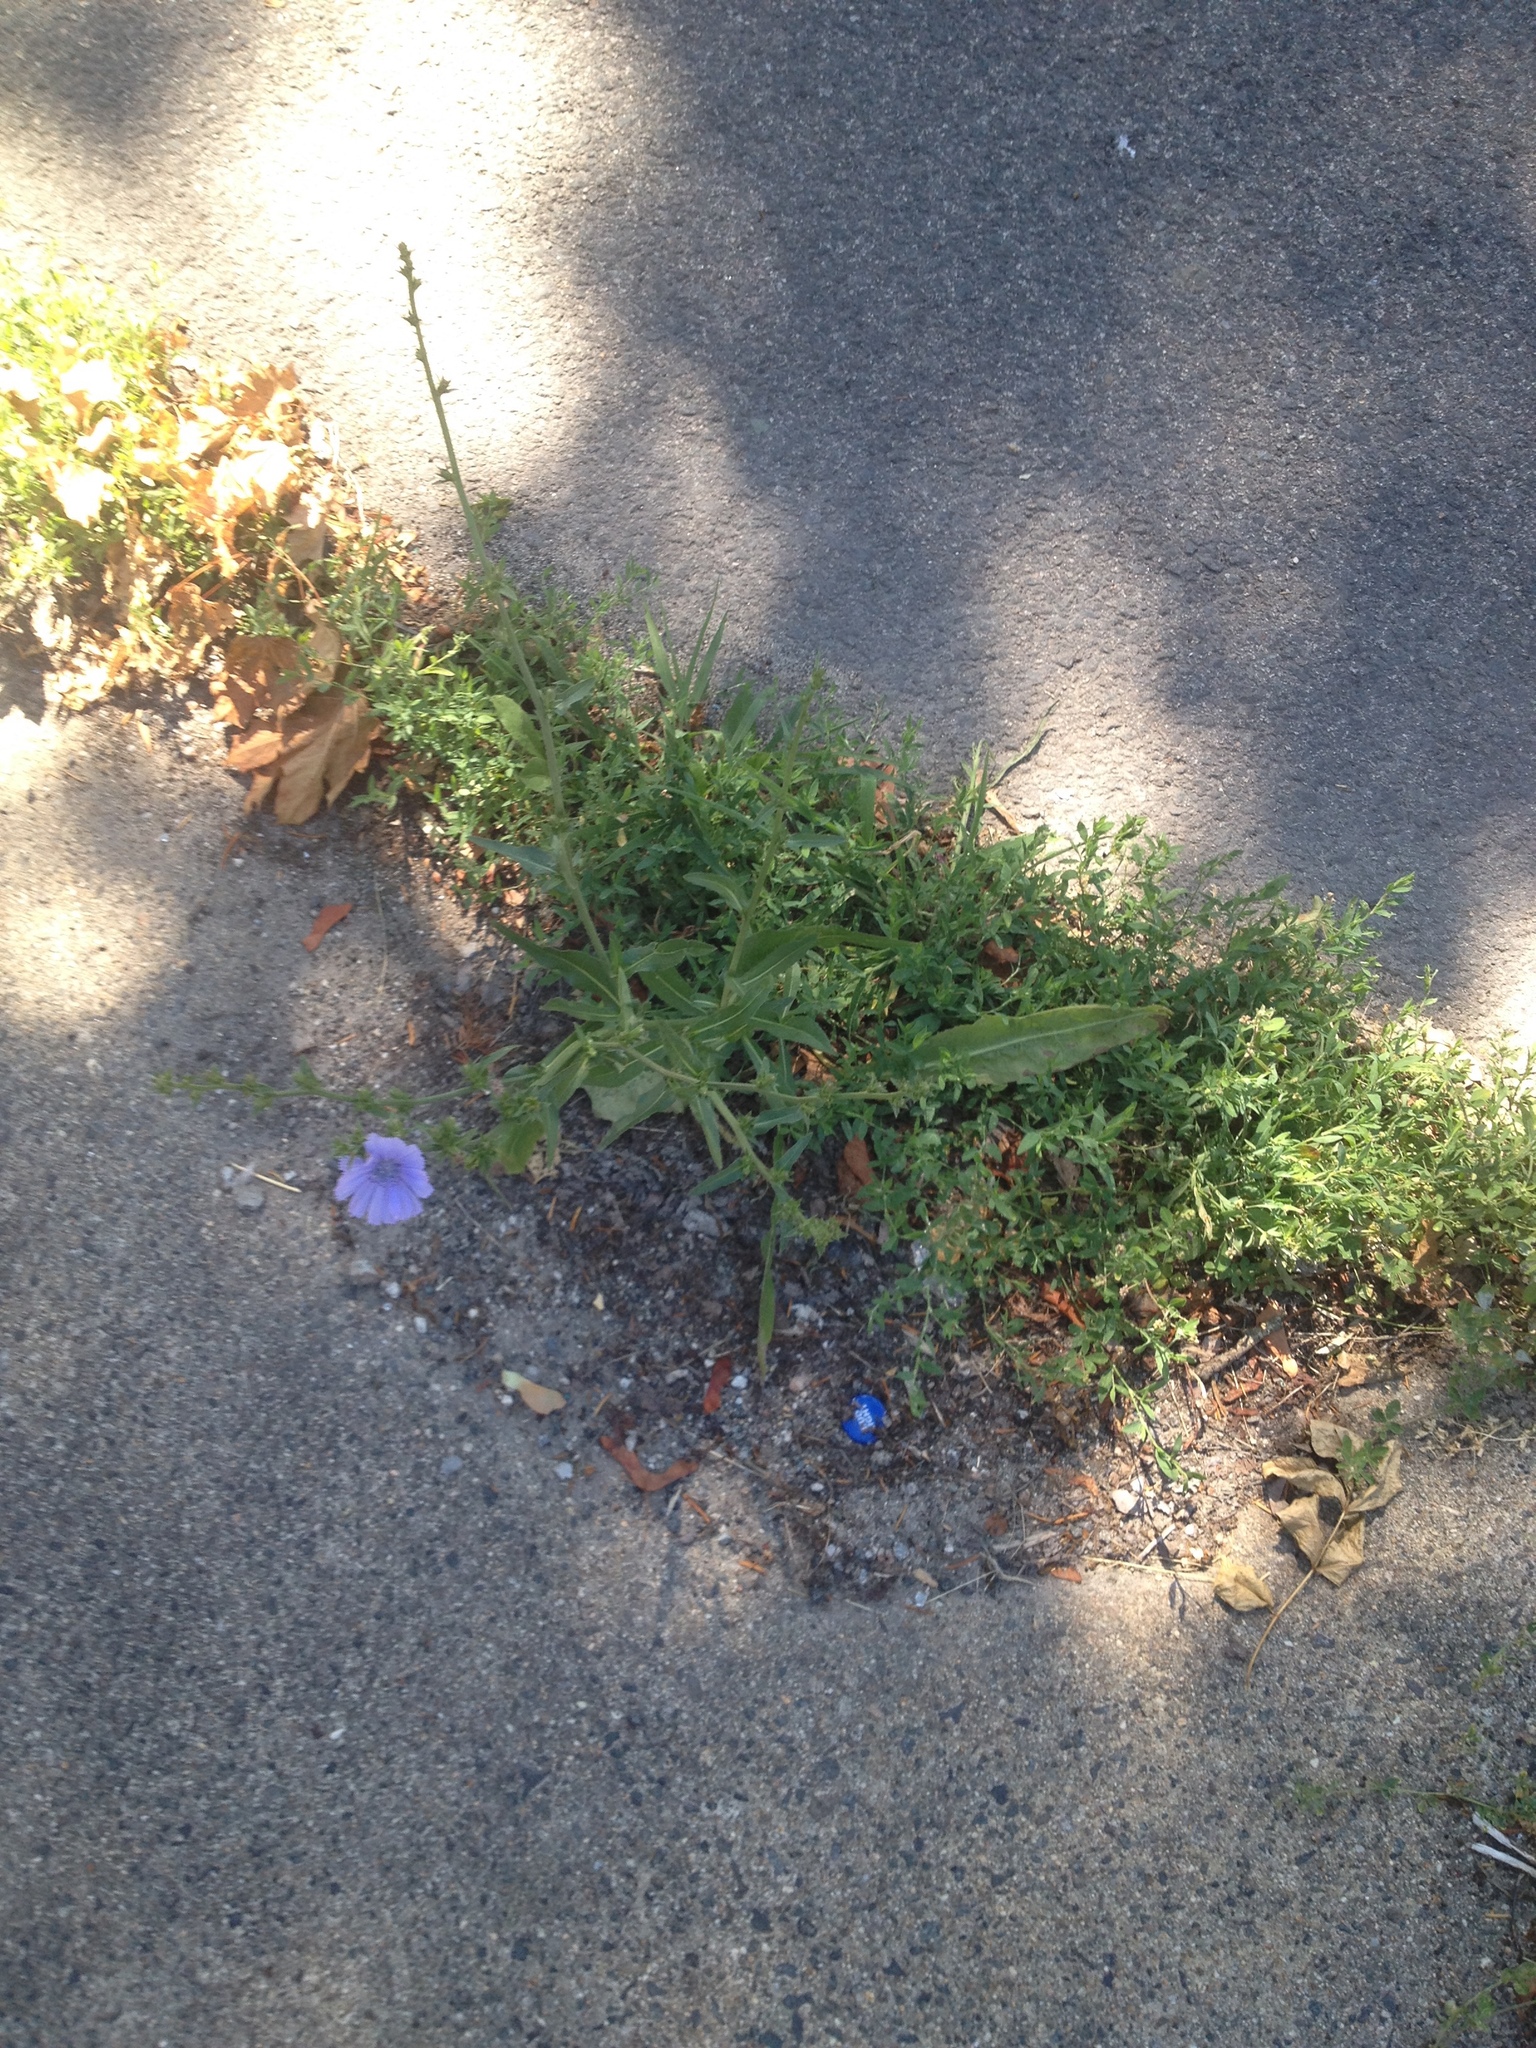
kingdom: Plantae
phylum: Tracheophyta
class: Magnoliopsida
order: Asterales
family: Asteraceae
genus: Cichorium
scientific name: Cichorium intybus
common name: Chicory
